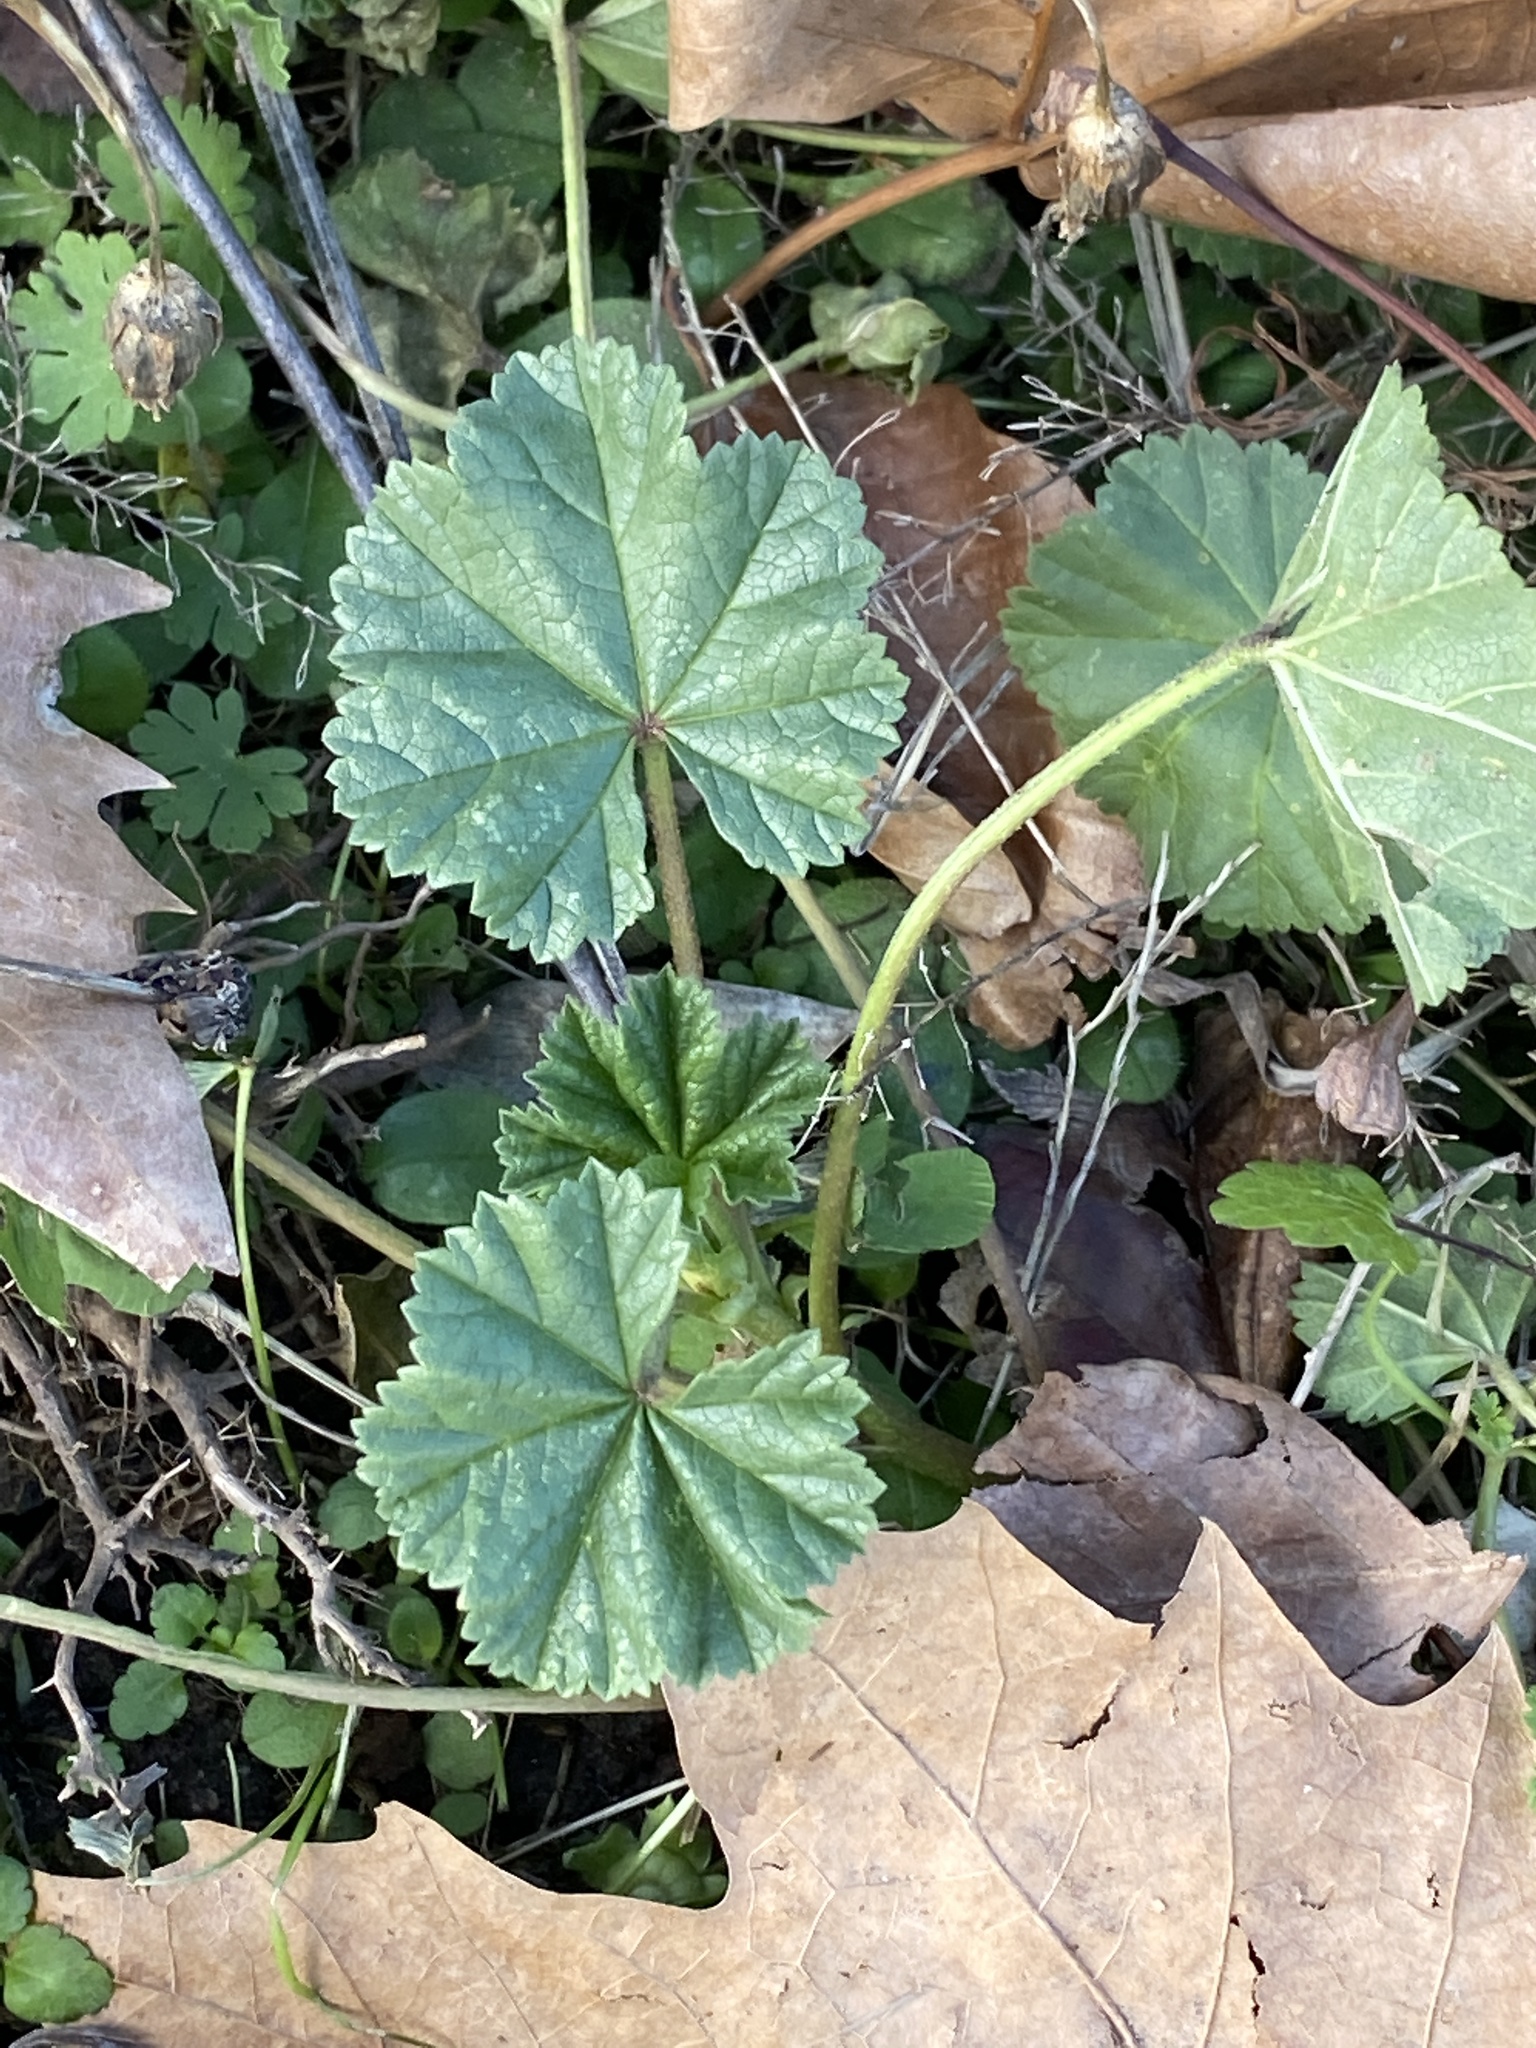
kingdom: Plantae
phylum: Tracheophyta
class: Magnoliopsida
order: Malvales
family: Malvaceae
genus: Malva
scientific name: Malva neglecta
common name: Common mallow
